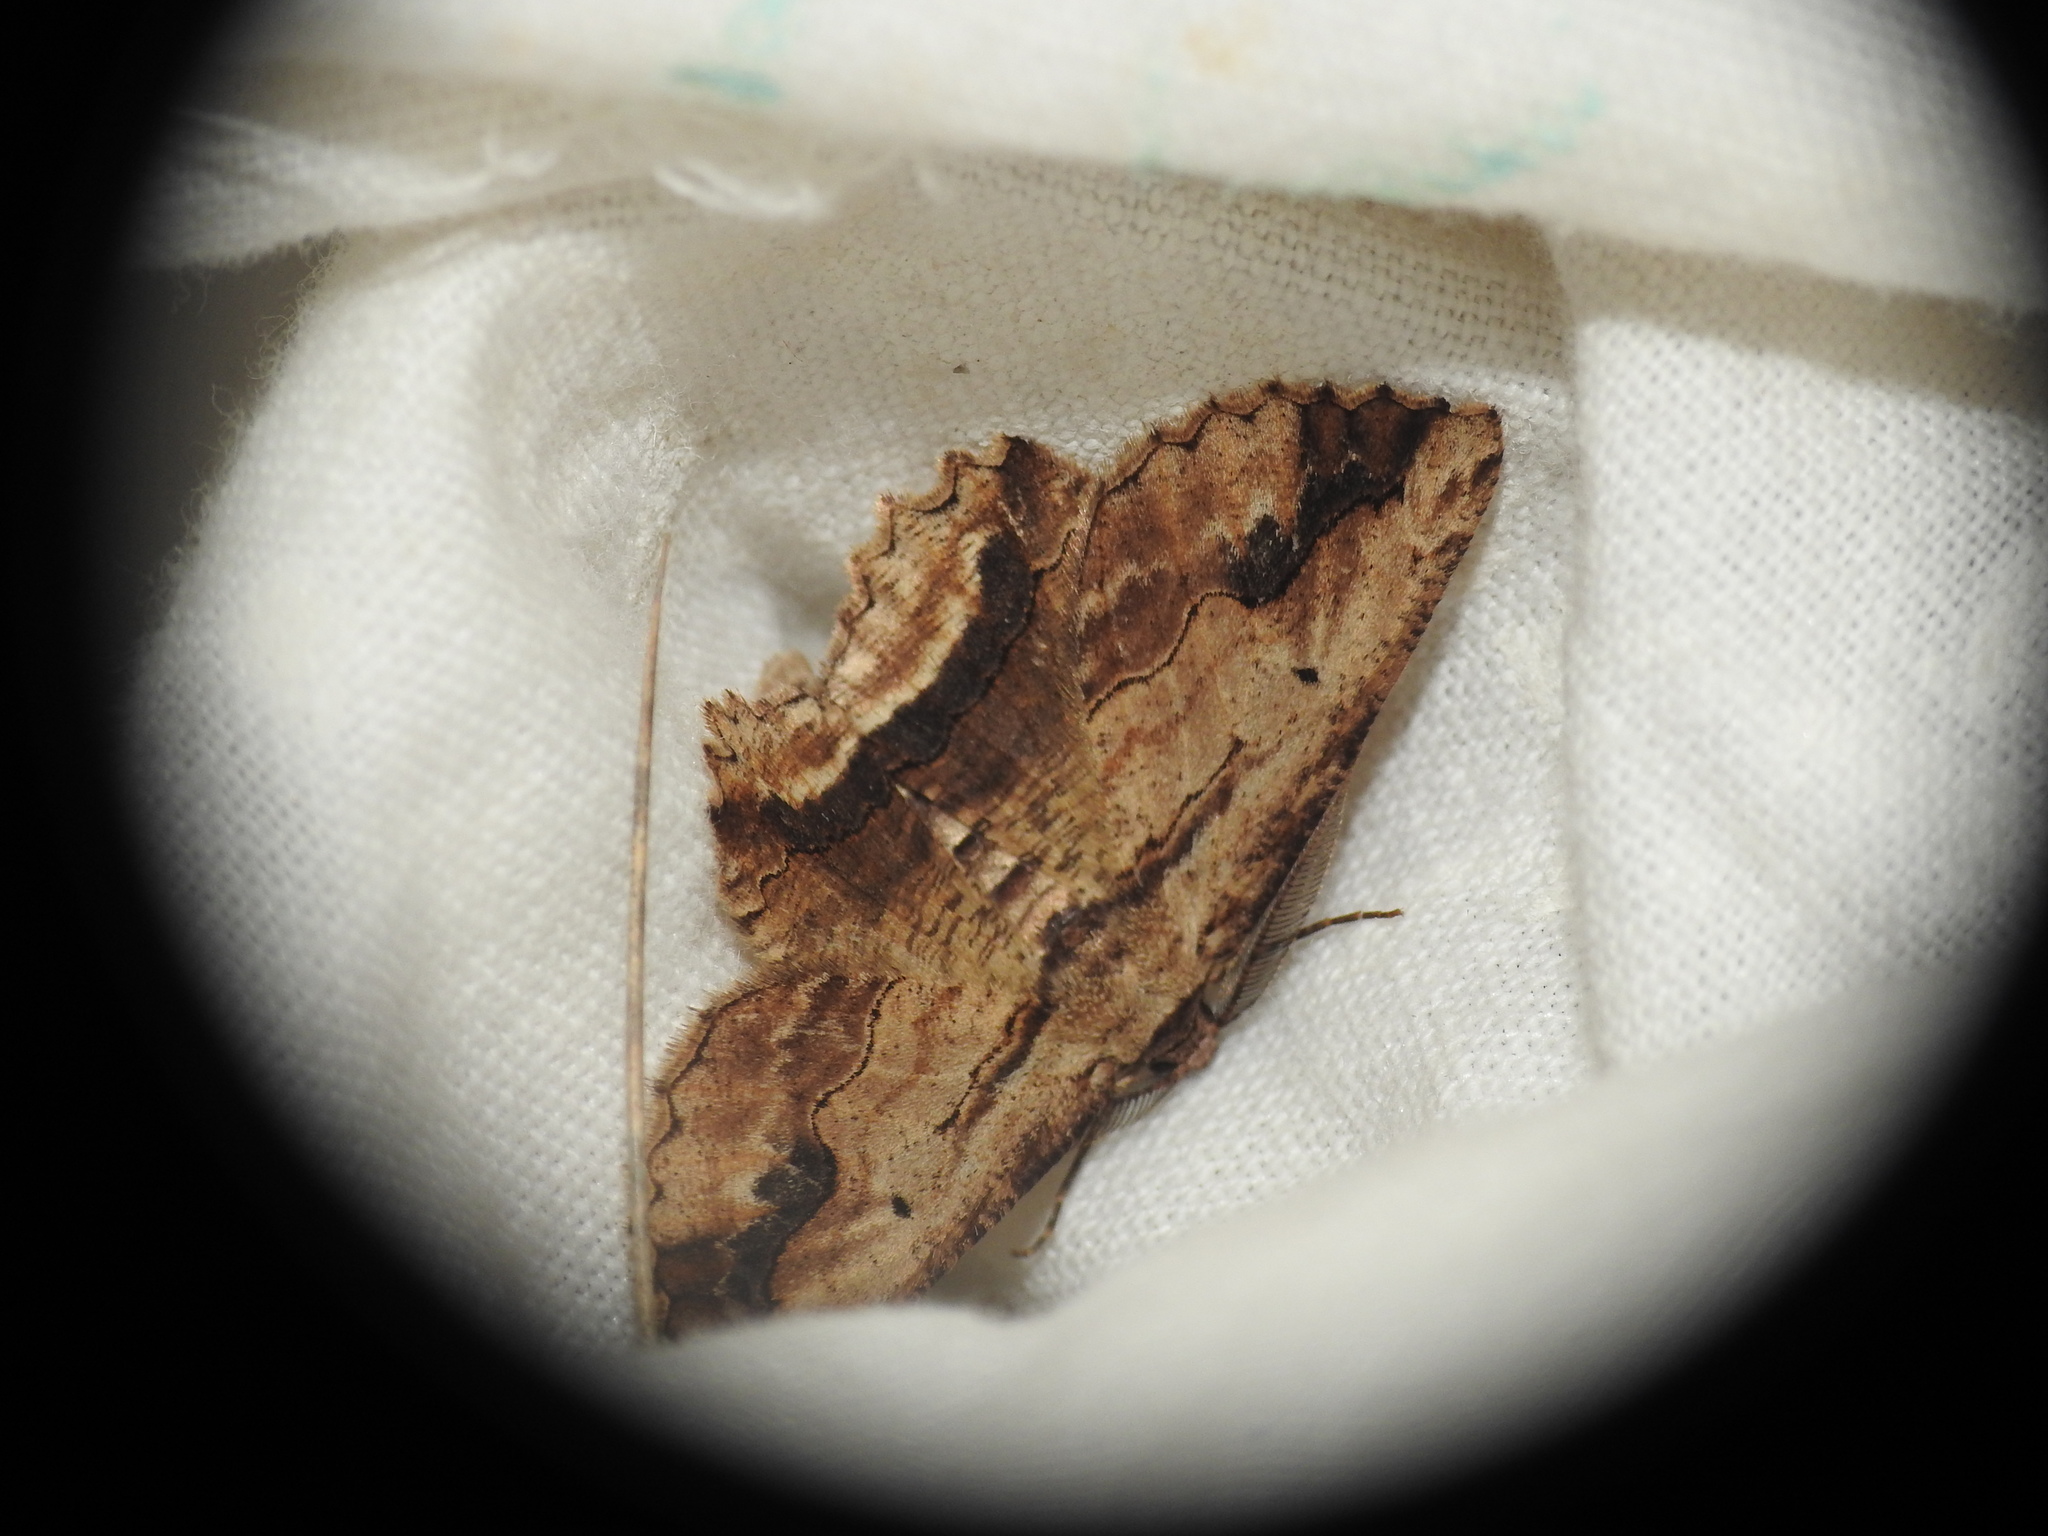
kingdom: Animalia
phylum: Arthropoda
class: Insecta
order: Lepidoptera
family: Geometridae
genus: Menophra
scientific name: Menophra abruptaria
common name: Waved umber
